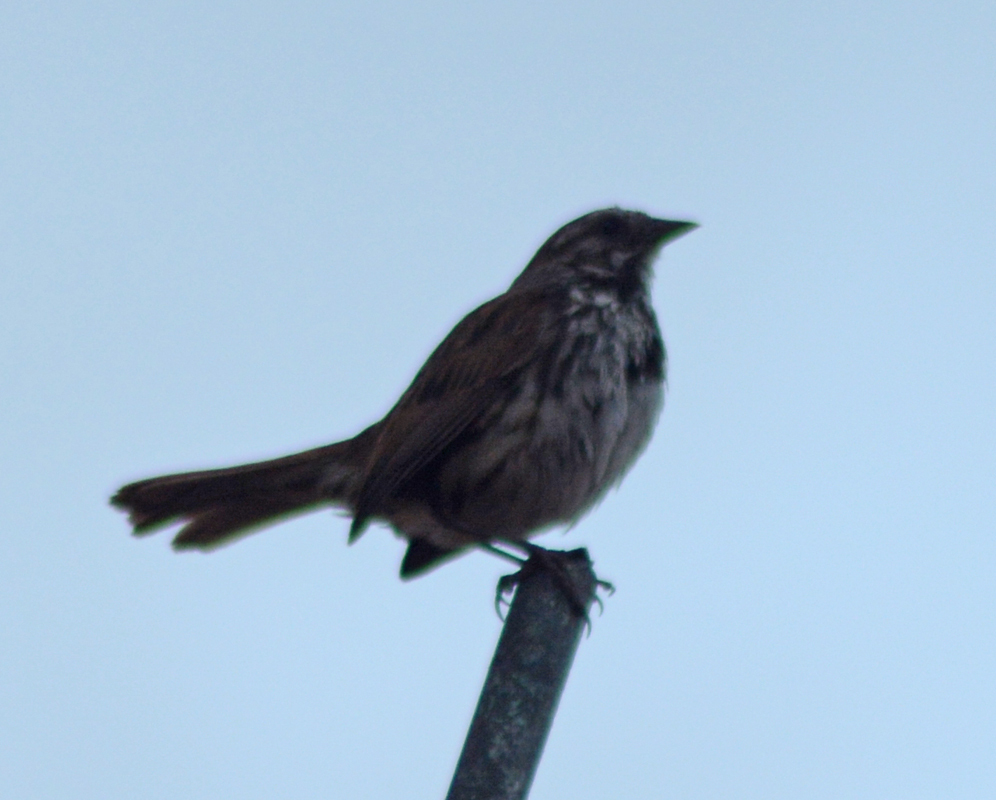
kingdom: Animalia
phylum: Chordata
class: Aves
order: Passeriformes
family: Passerellidae
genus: Melospiza
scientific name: Melospiza melodia
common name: Song sparrow
